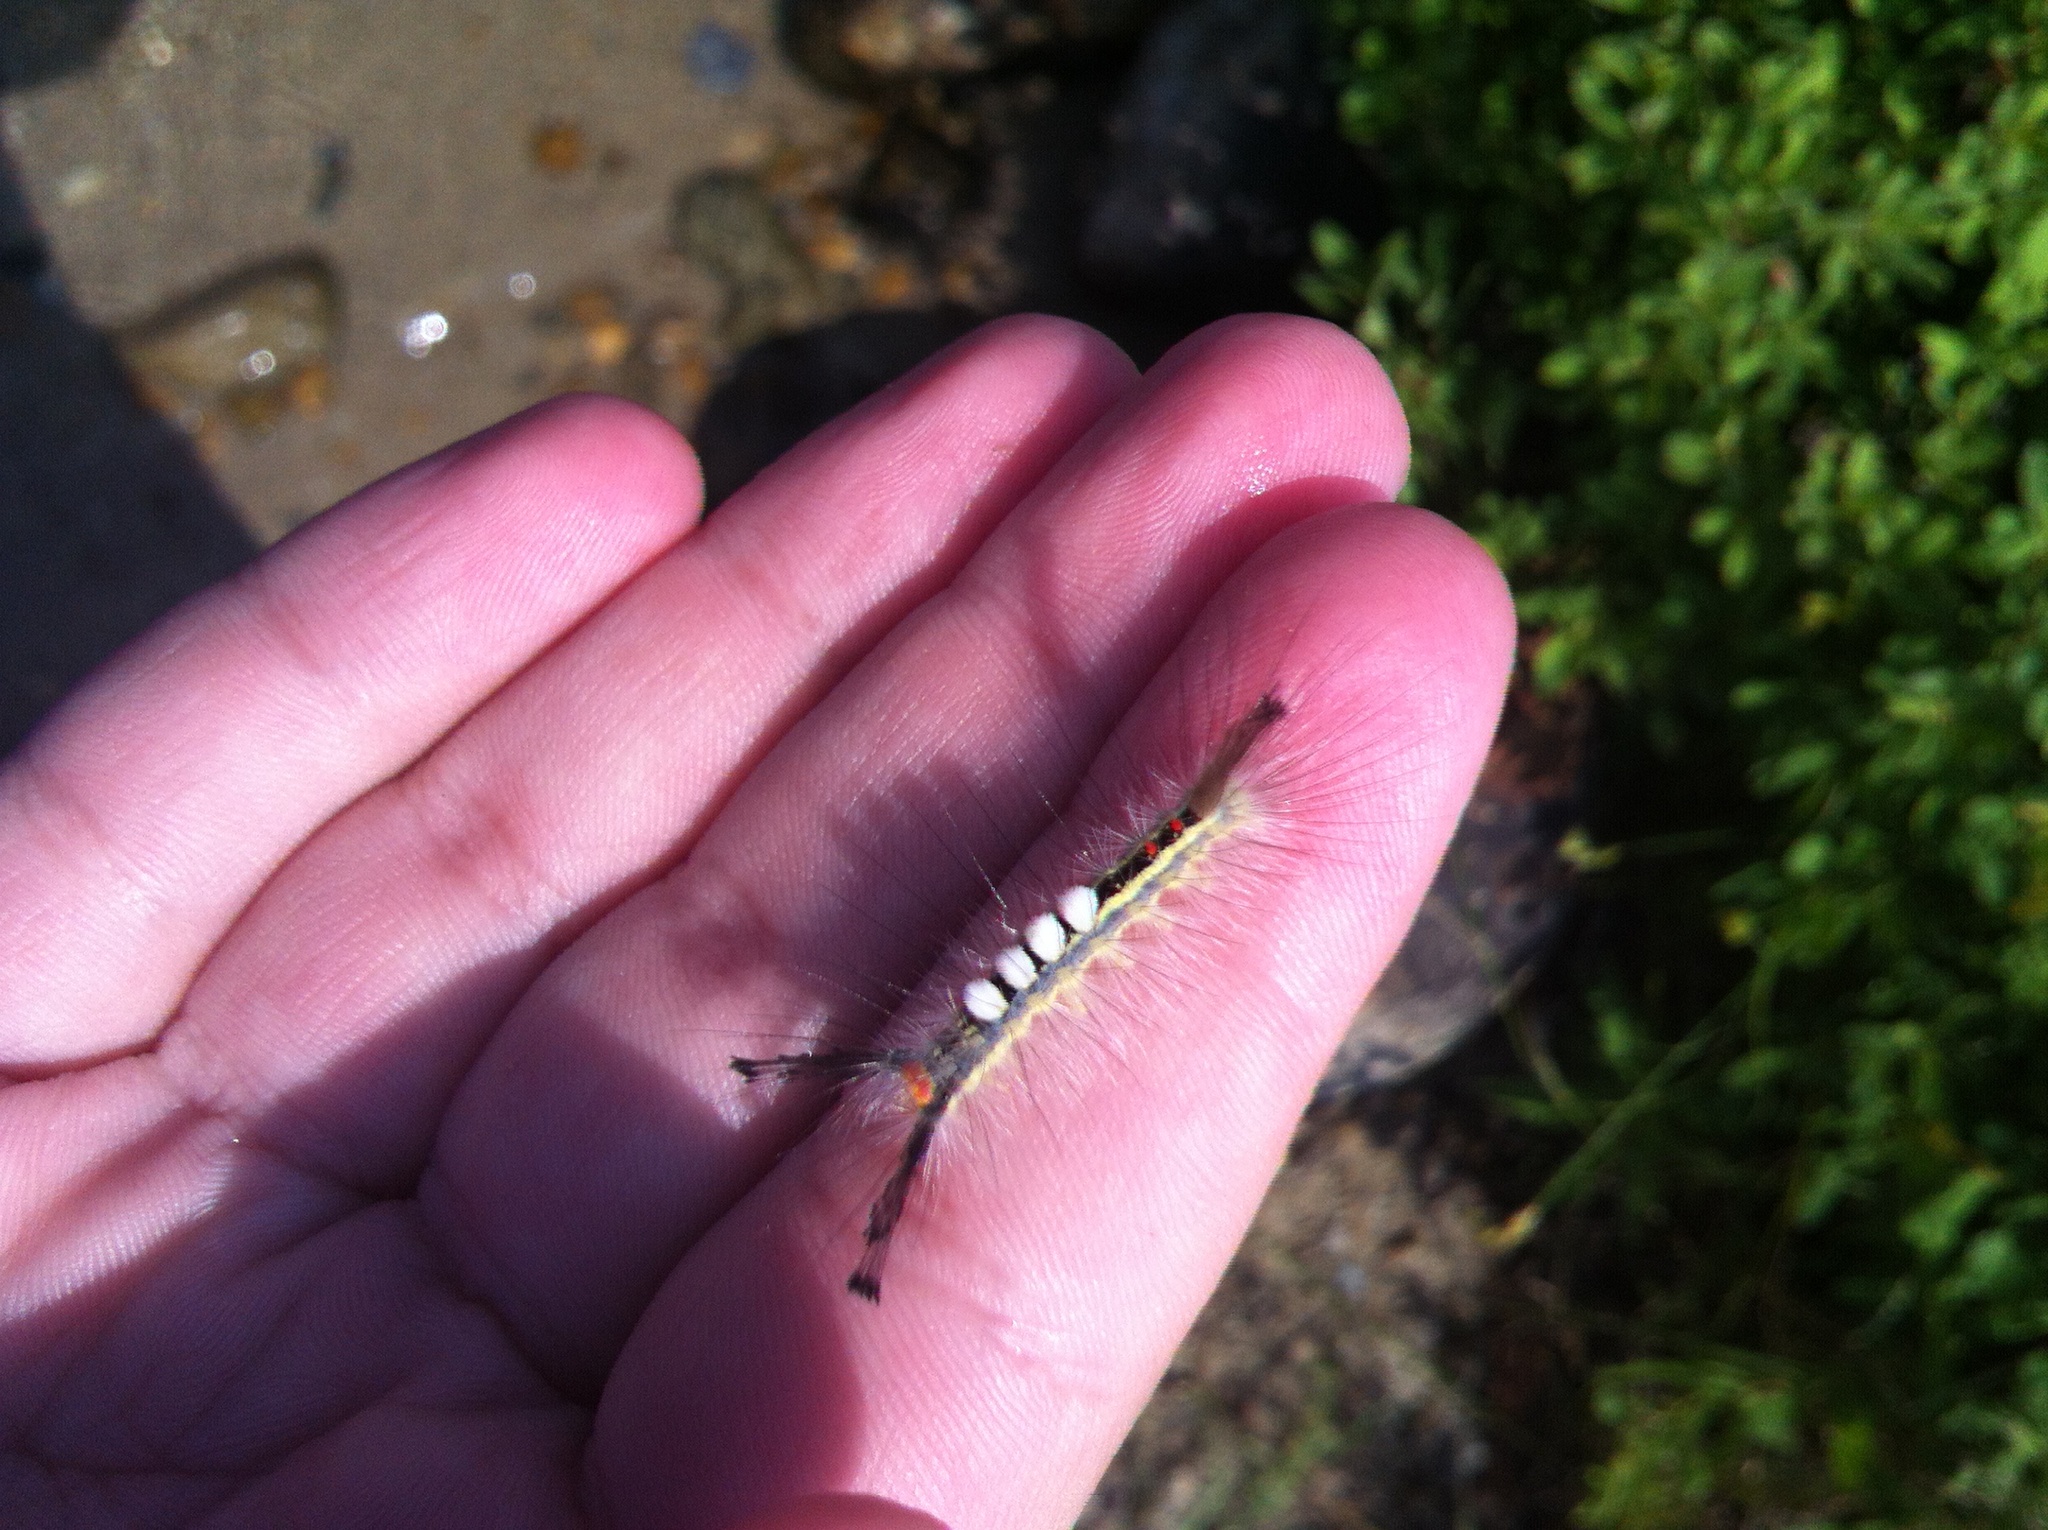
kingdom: Animalia
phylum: Arthropoda
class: Insecta
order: Lepidoptera
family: Erebidae
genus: Orgyia
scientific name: Orgyia leucostigma
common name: White-marked tussock moth
